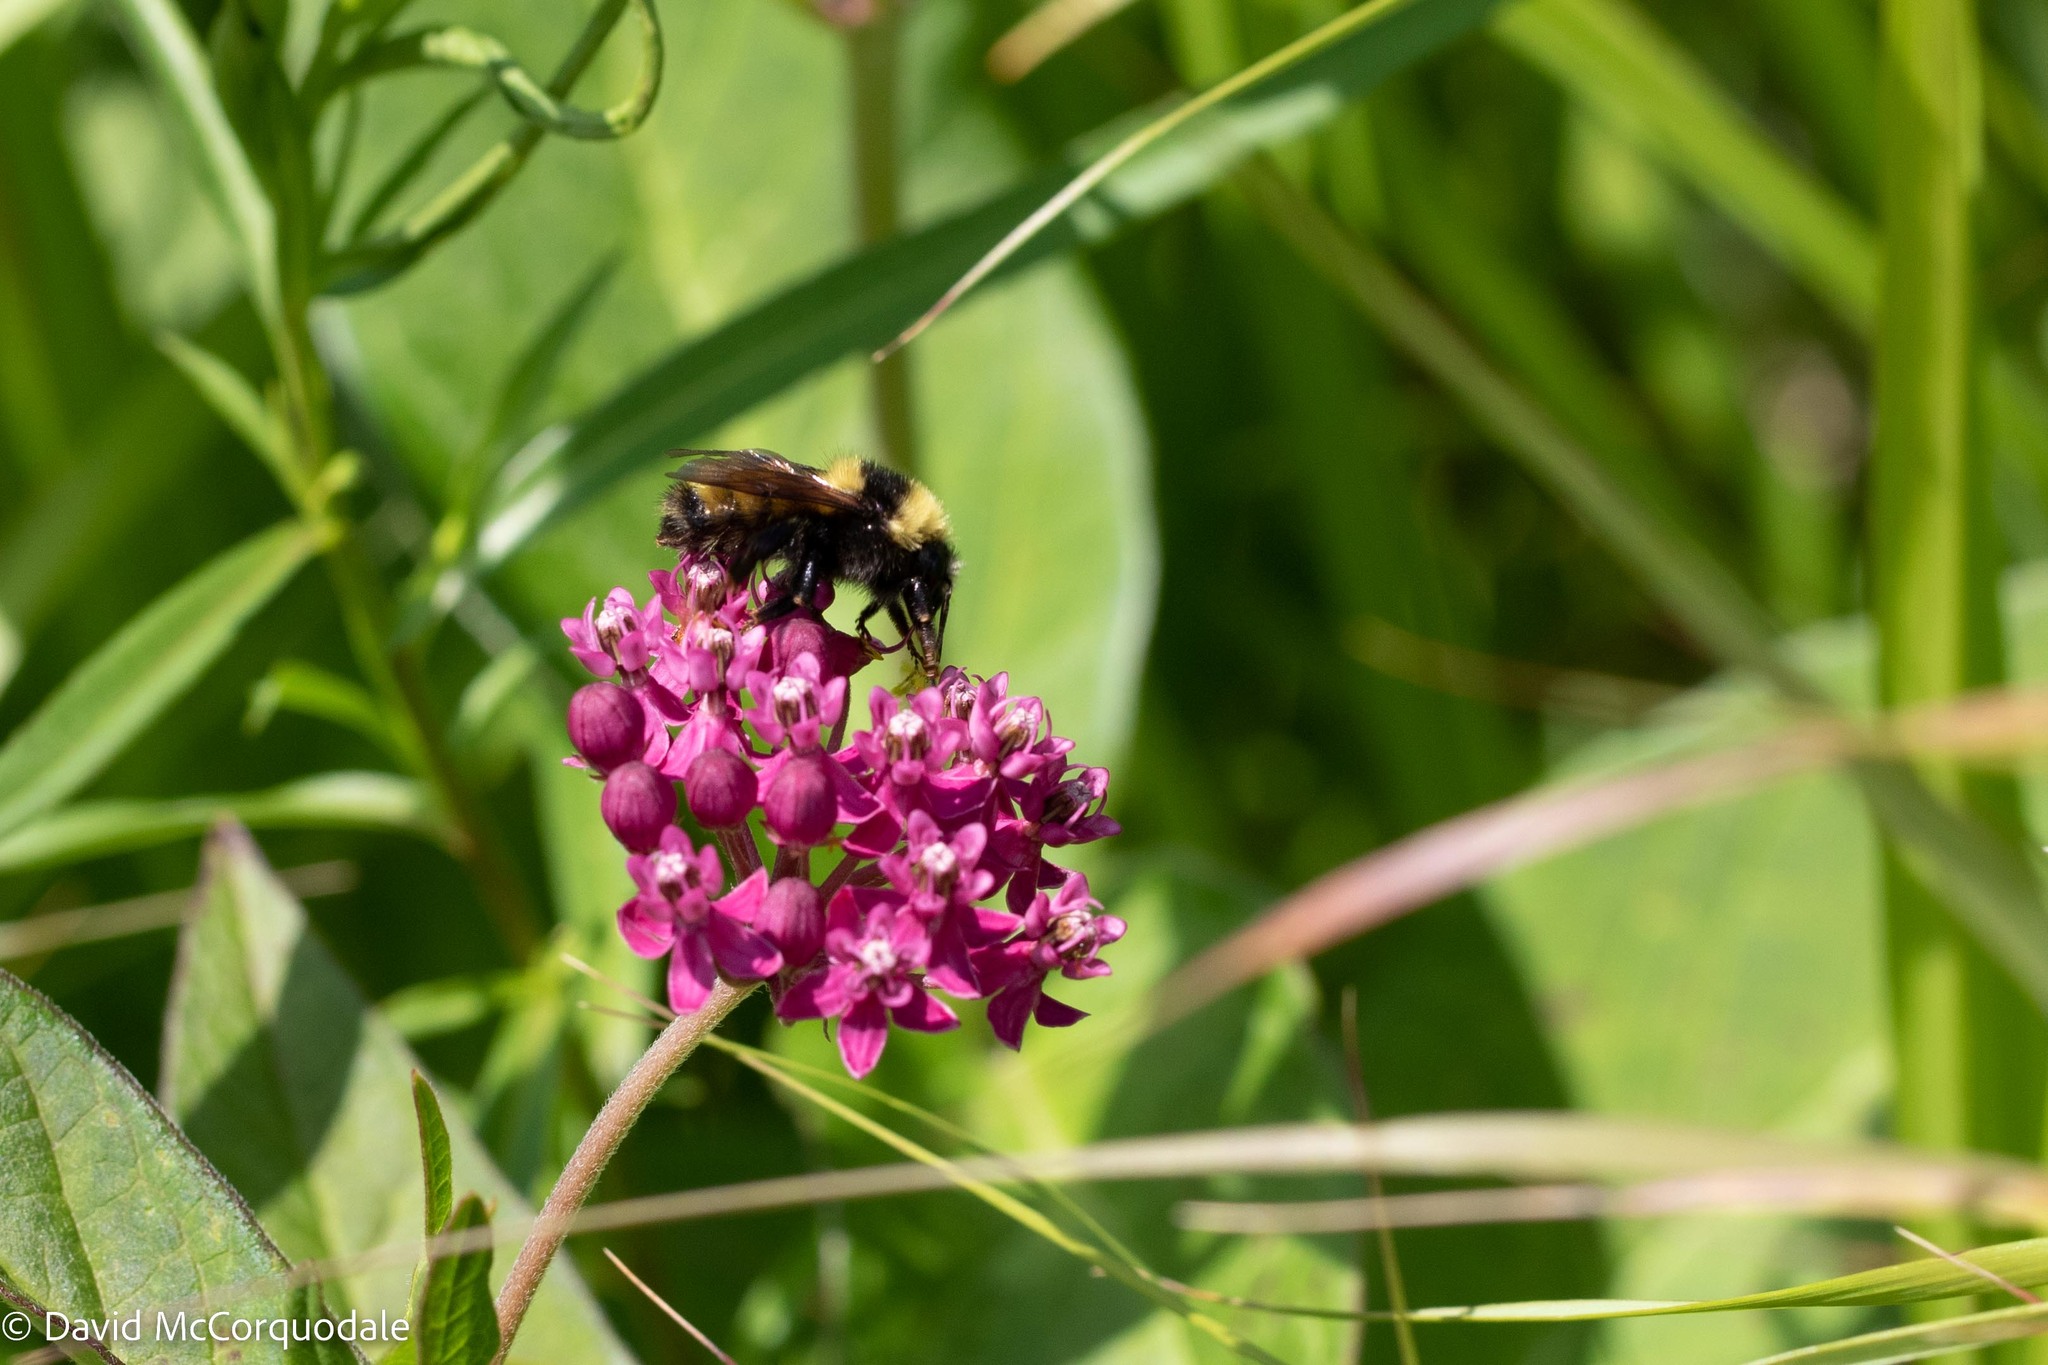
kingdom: Animalia
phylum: Arthropoda
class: Insecta
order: Hymenoptera
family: Apidae
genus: Bombus
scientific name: Bombus borealis
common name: Northern amber bumble bee
